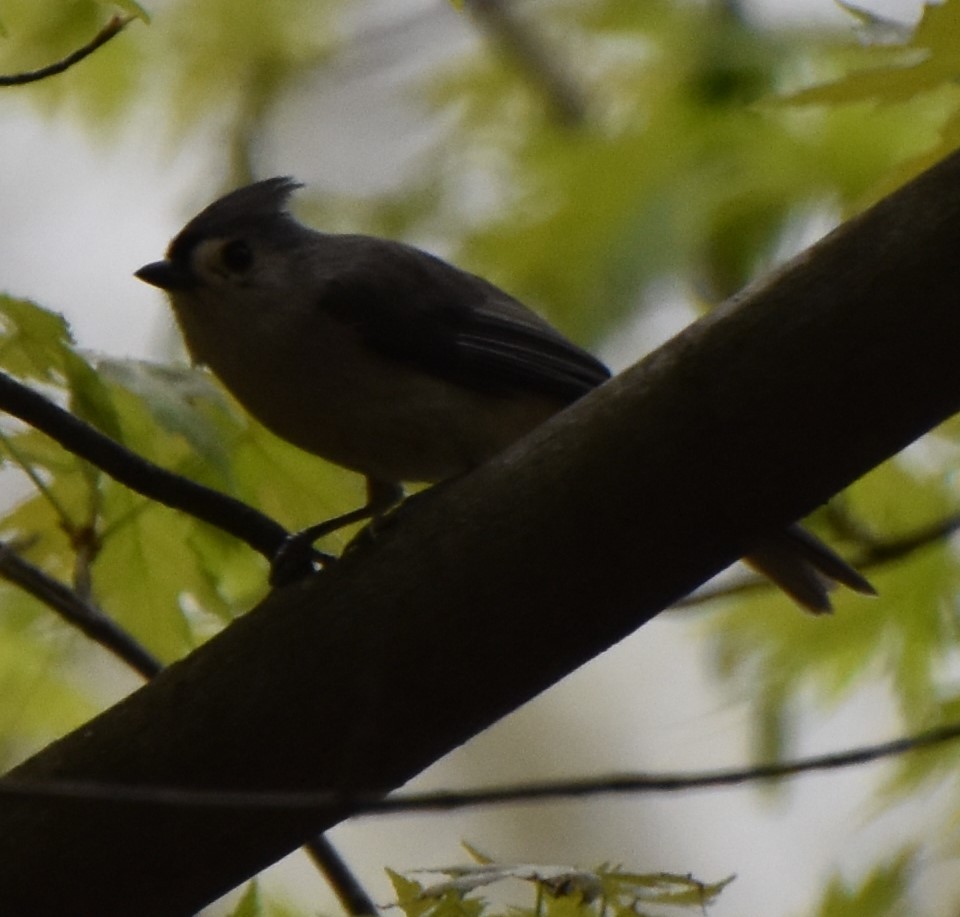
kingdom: Animalia
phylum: Chordata
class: Aves
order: Passeriformes
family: Paridae
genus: Baeolophus
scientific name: Baeolophus bicolor
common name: Tufted titmouse
